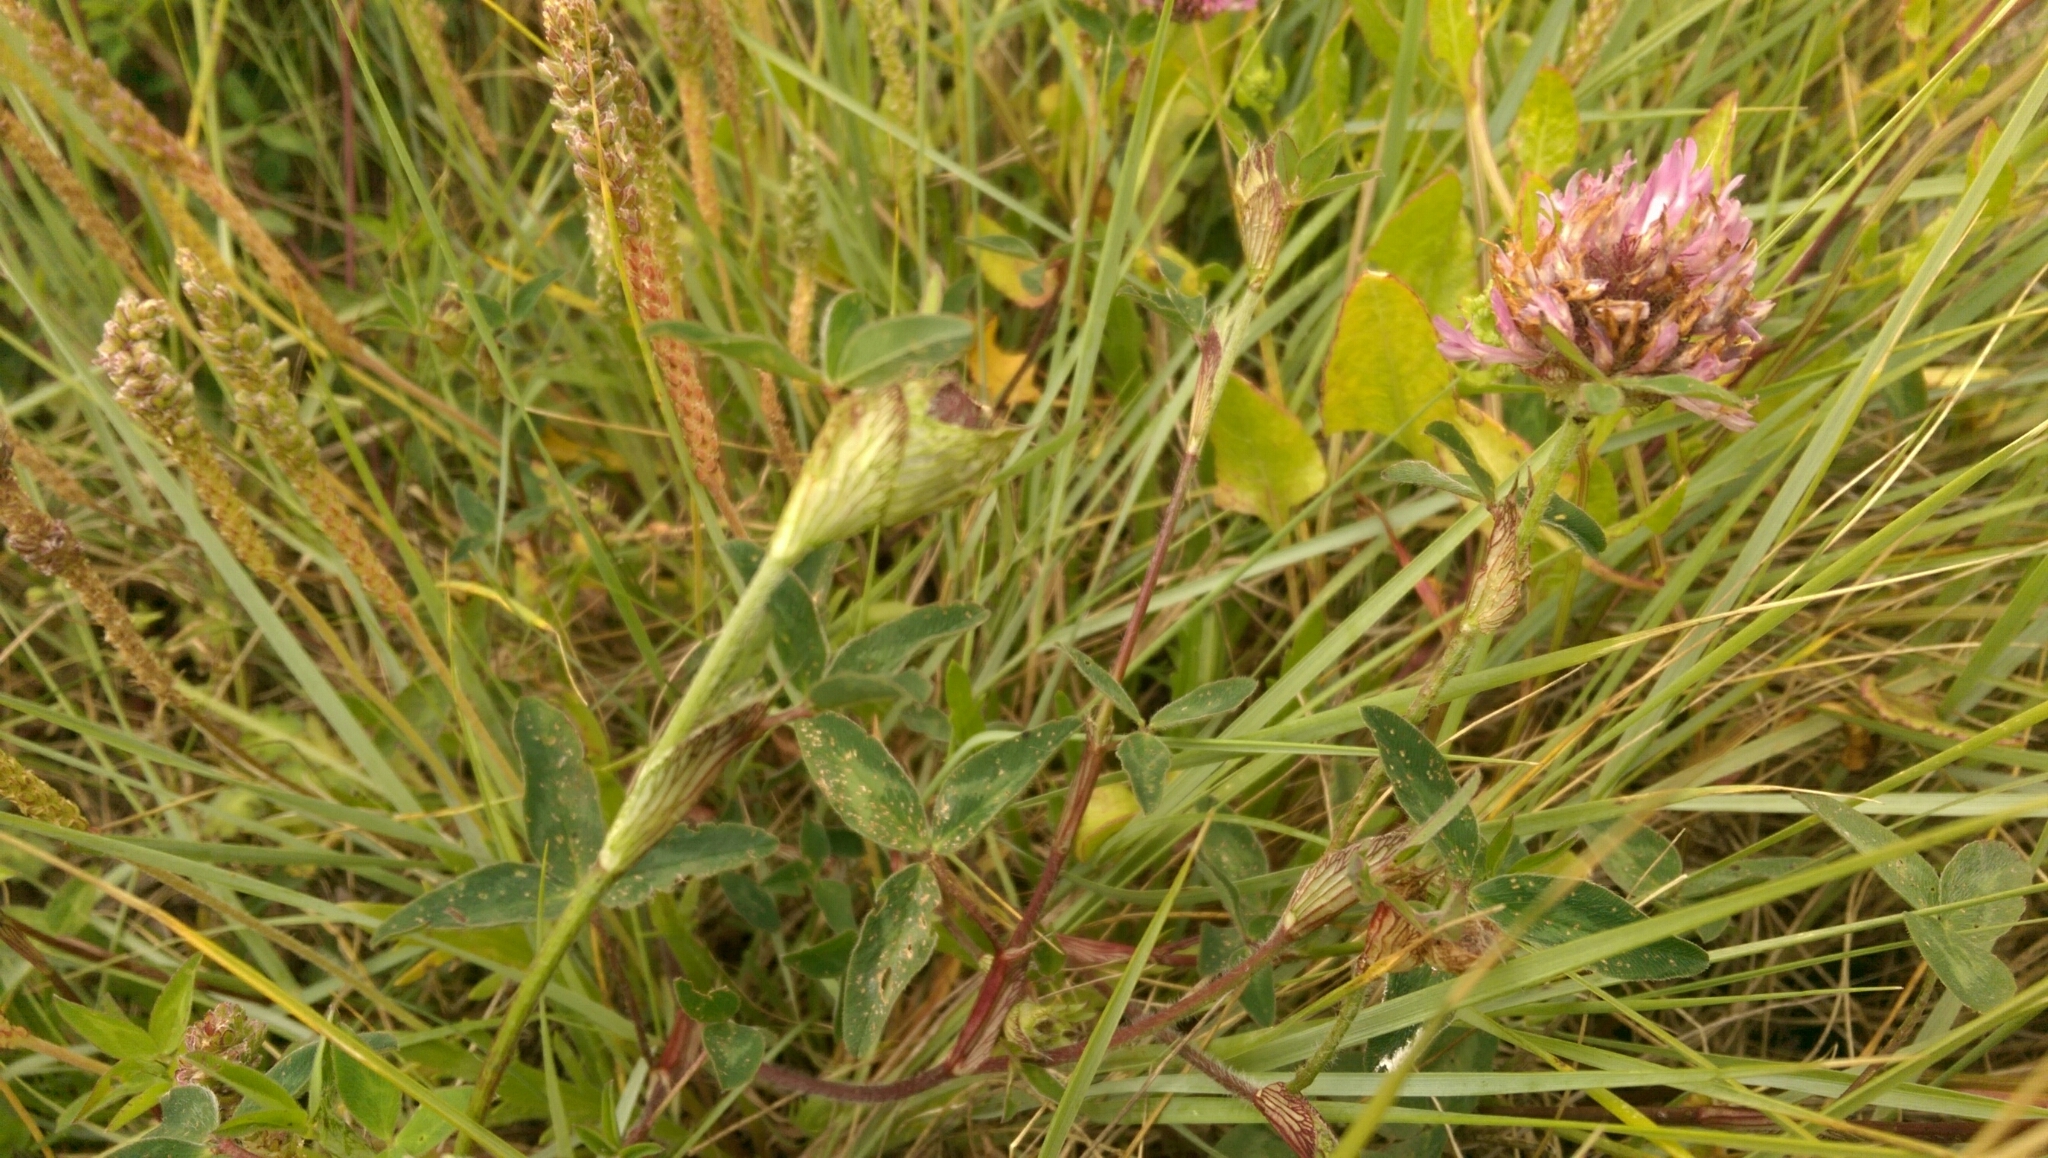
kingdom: Plantae
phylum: Tracheophyta
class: Magnoliopsida
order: Fabales
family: Fabaceae
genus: Trifolium
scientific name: Trifolium pratense
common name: Red clover
